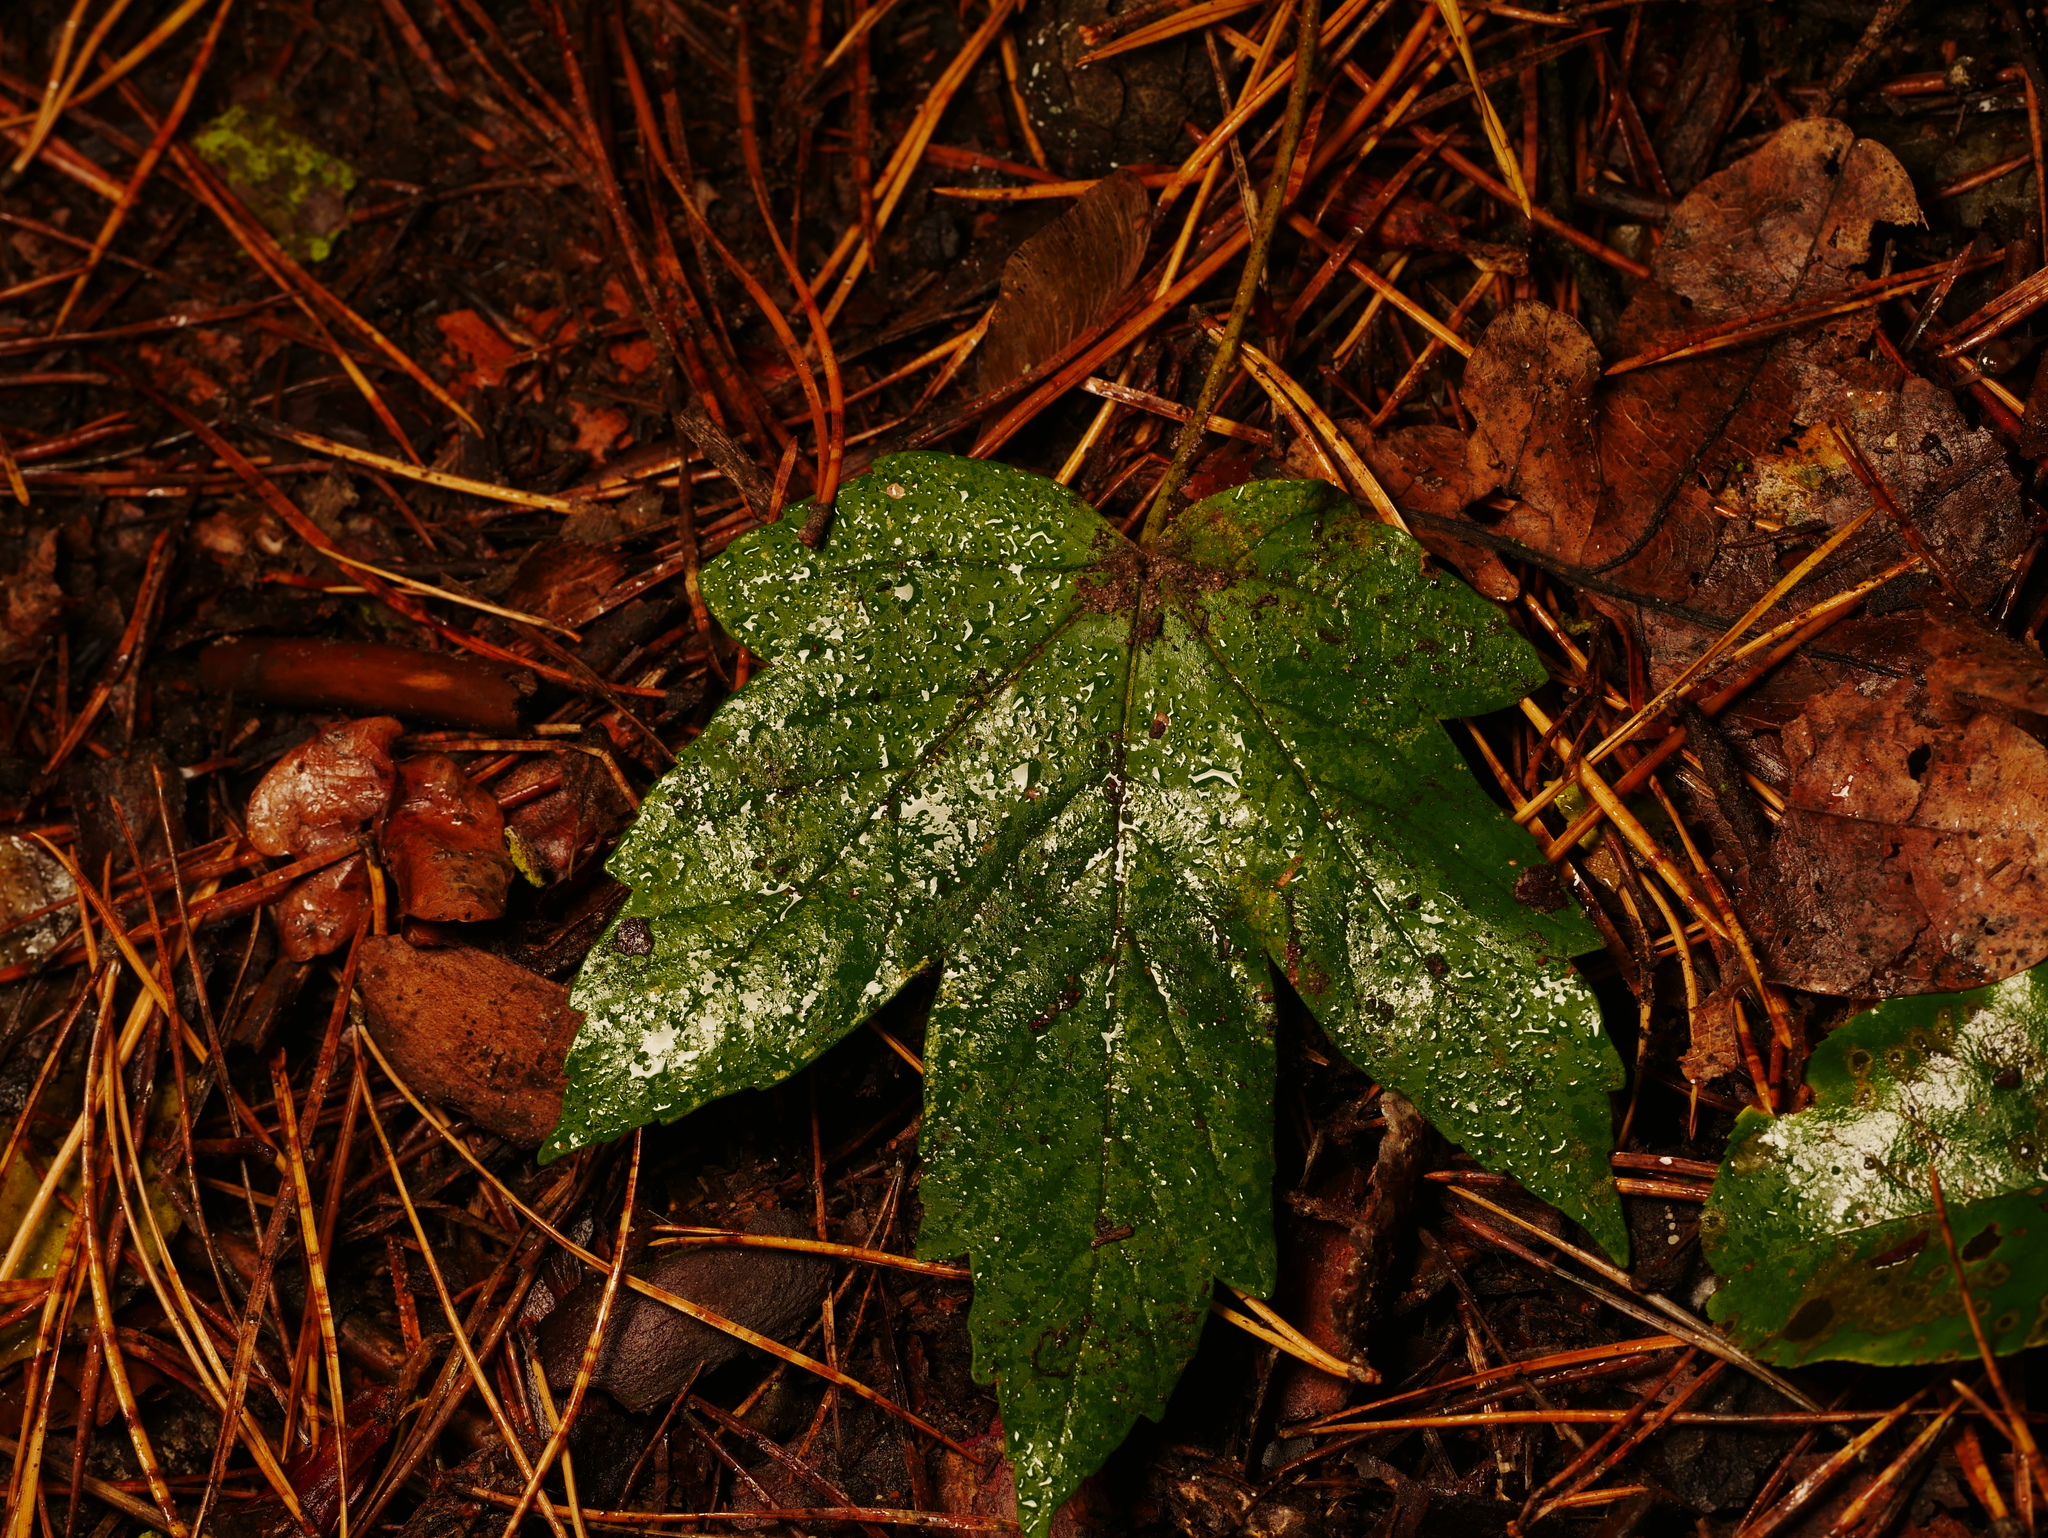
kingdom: Plantae
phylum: Tracheophyta
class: Magnoliopsida
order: Sapindales
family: Sapindaceae
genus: Acer
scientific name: Acer pseudoplatanus
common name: Sycamore
